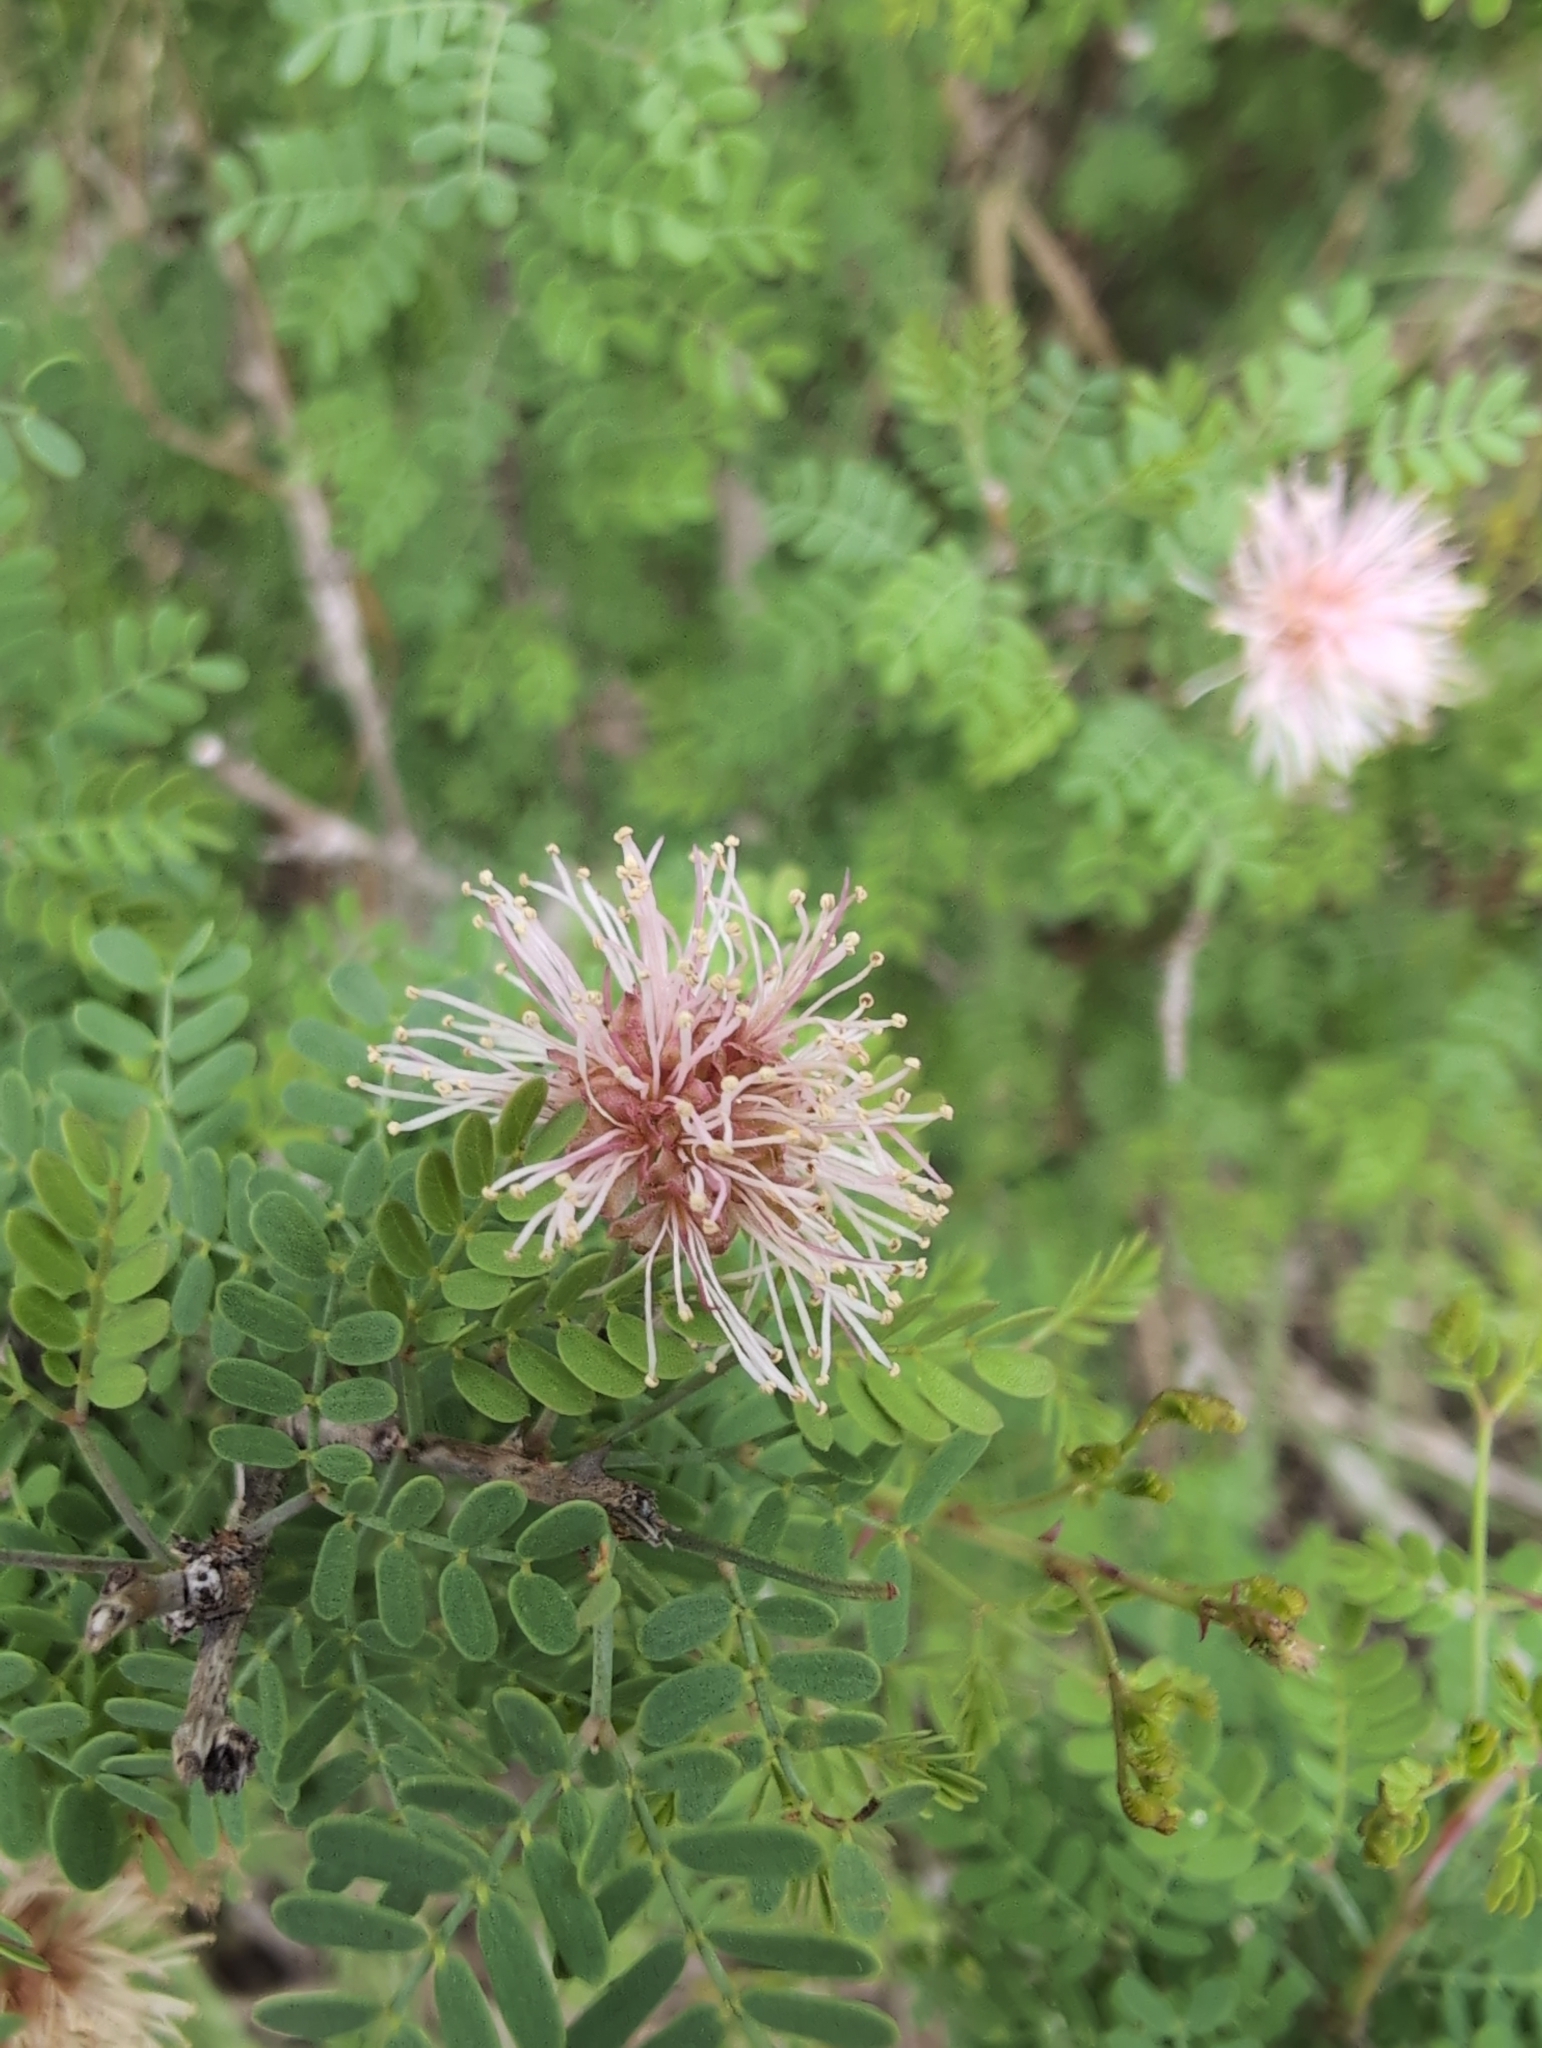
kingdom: Plantae
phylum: Tracheophyta
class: Magnoliopsida
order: Fabales
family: Fabaceae
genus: Mimosa
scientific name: Mimosa borealis
